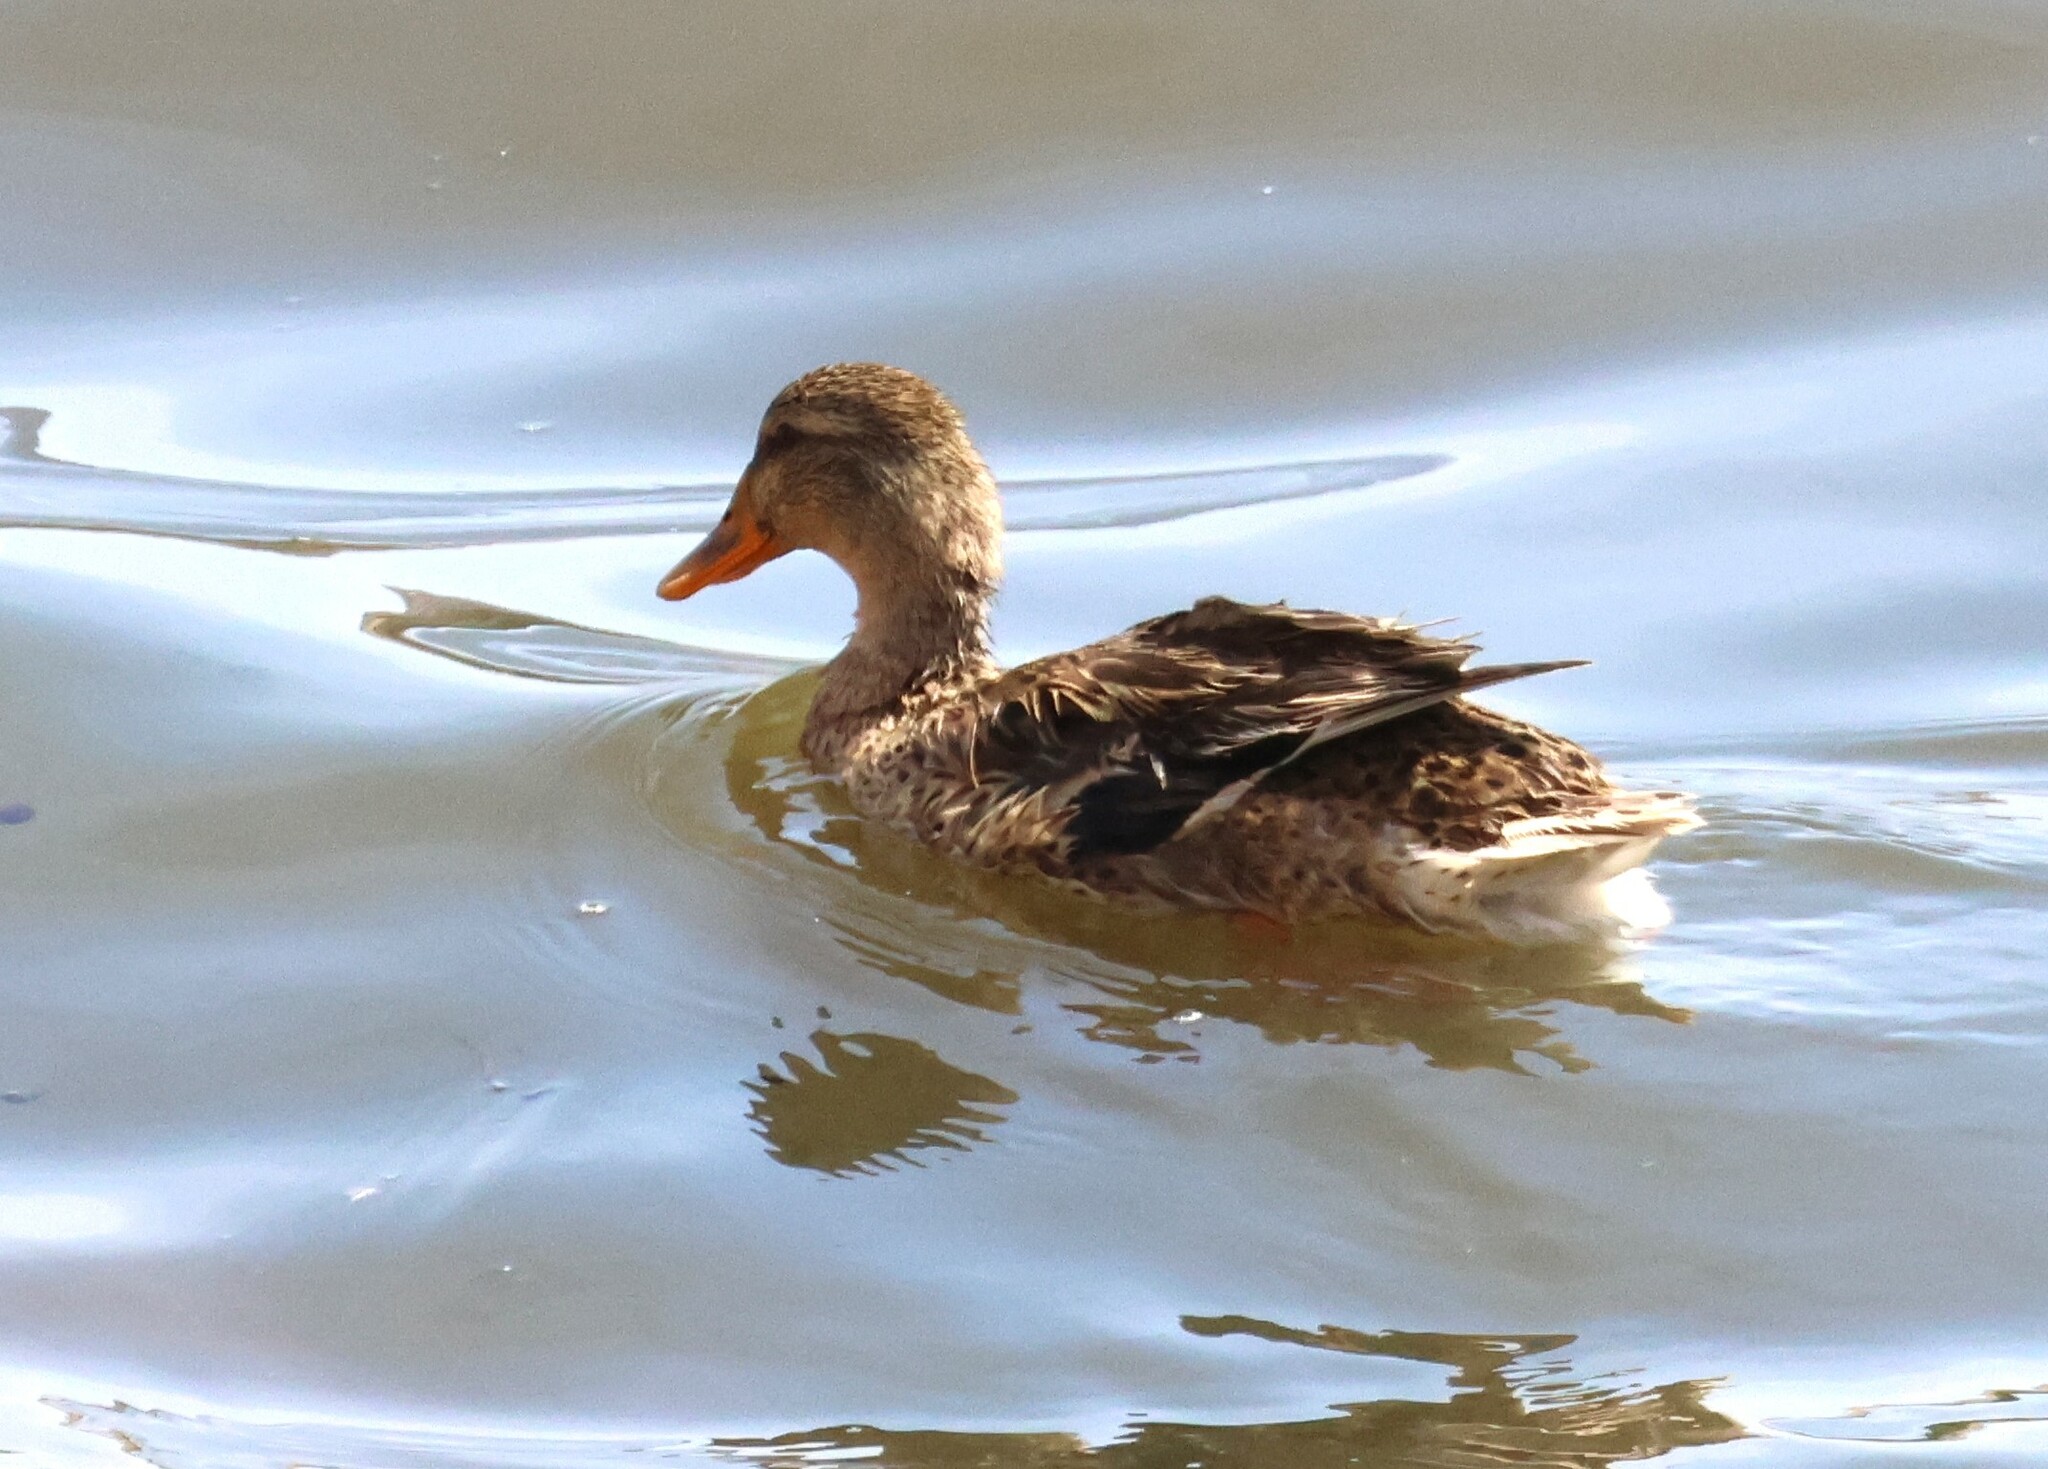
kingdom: Animalia
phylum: Chordata
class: Aves
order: Anseriformes
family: Anatidae
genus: Anas
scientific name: Anas platyrhynchos
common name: Mallard
